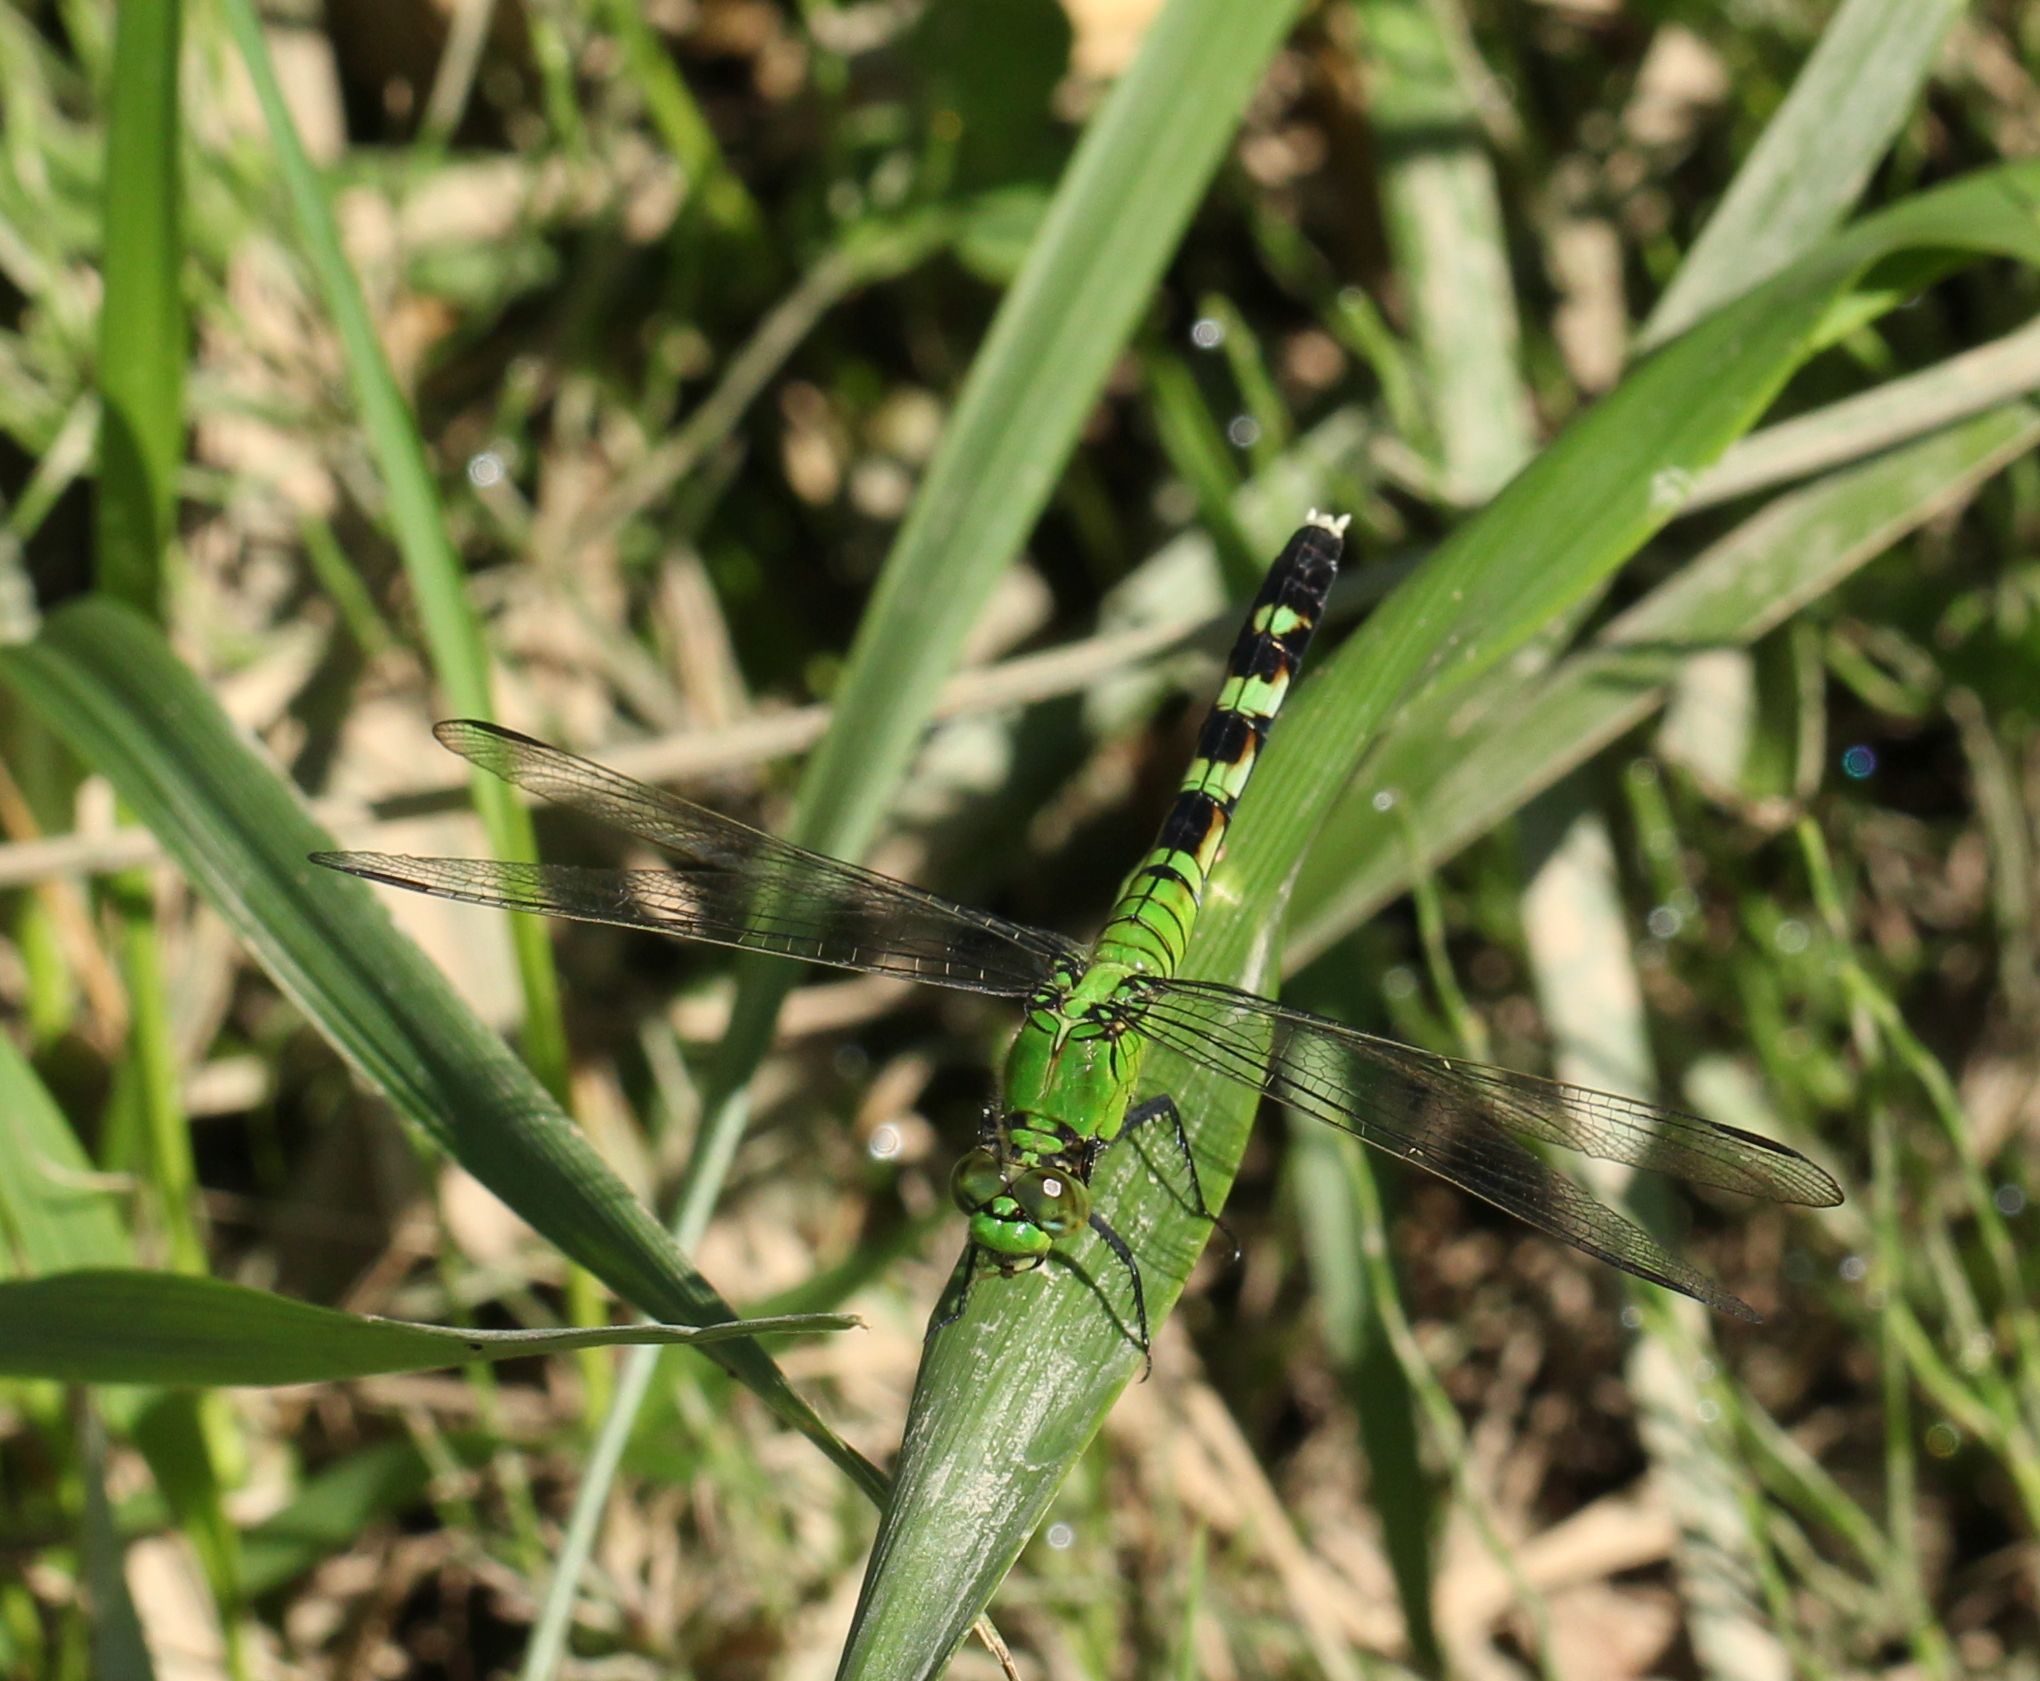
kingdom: Animalia
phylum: Arthropoda
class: Insecta
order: Odonata
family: Libellulidae
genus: Erythemis
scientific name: Erythemis simplicicollis
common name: Eastern pondhawk
